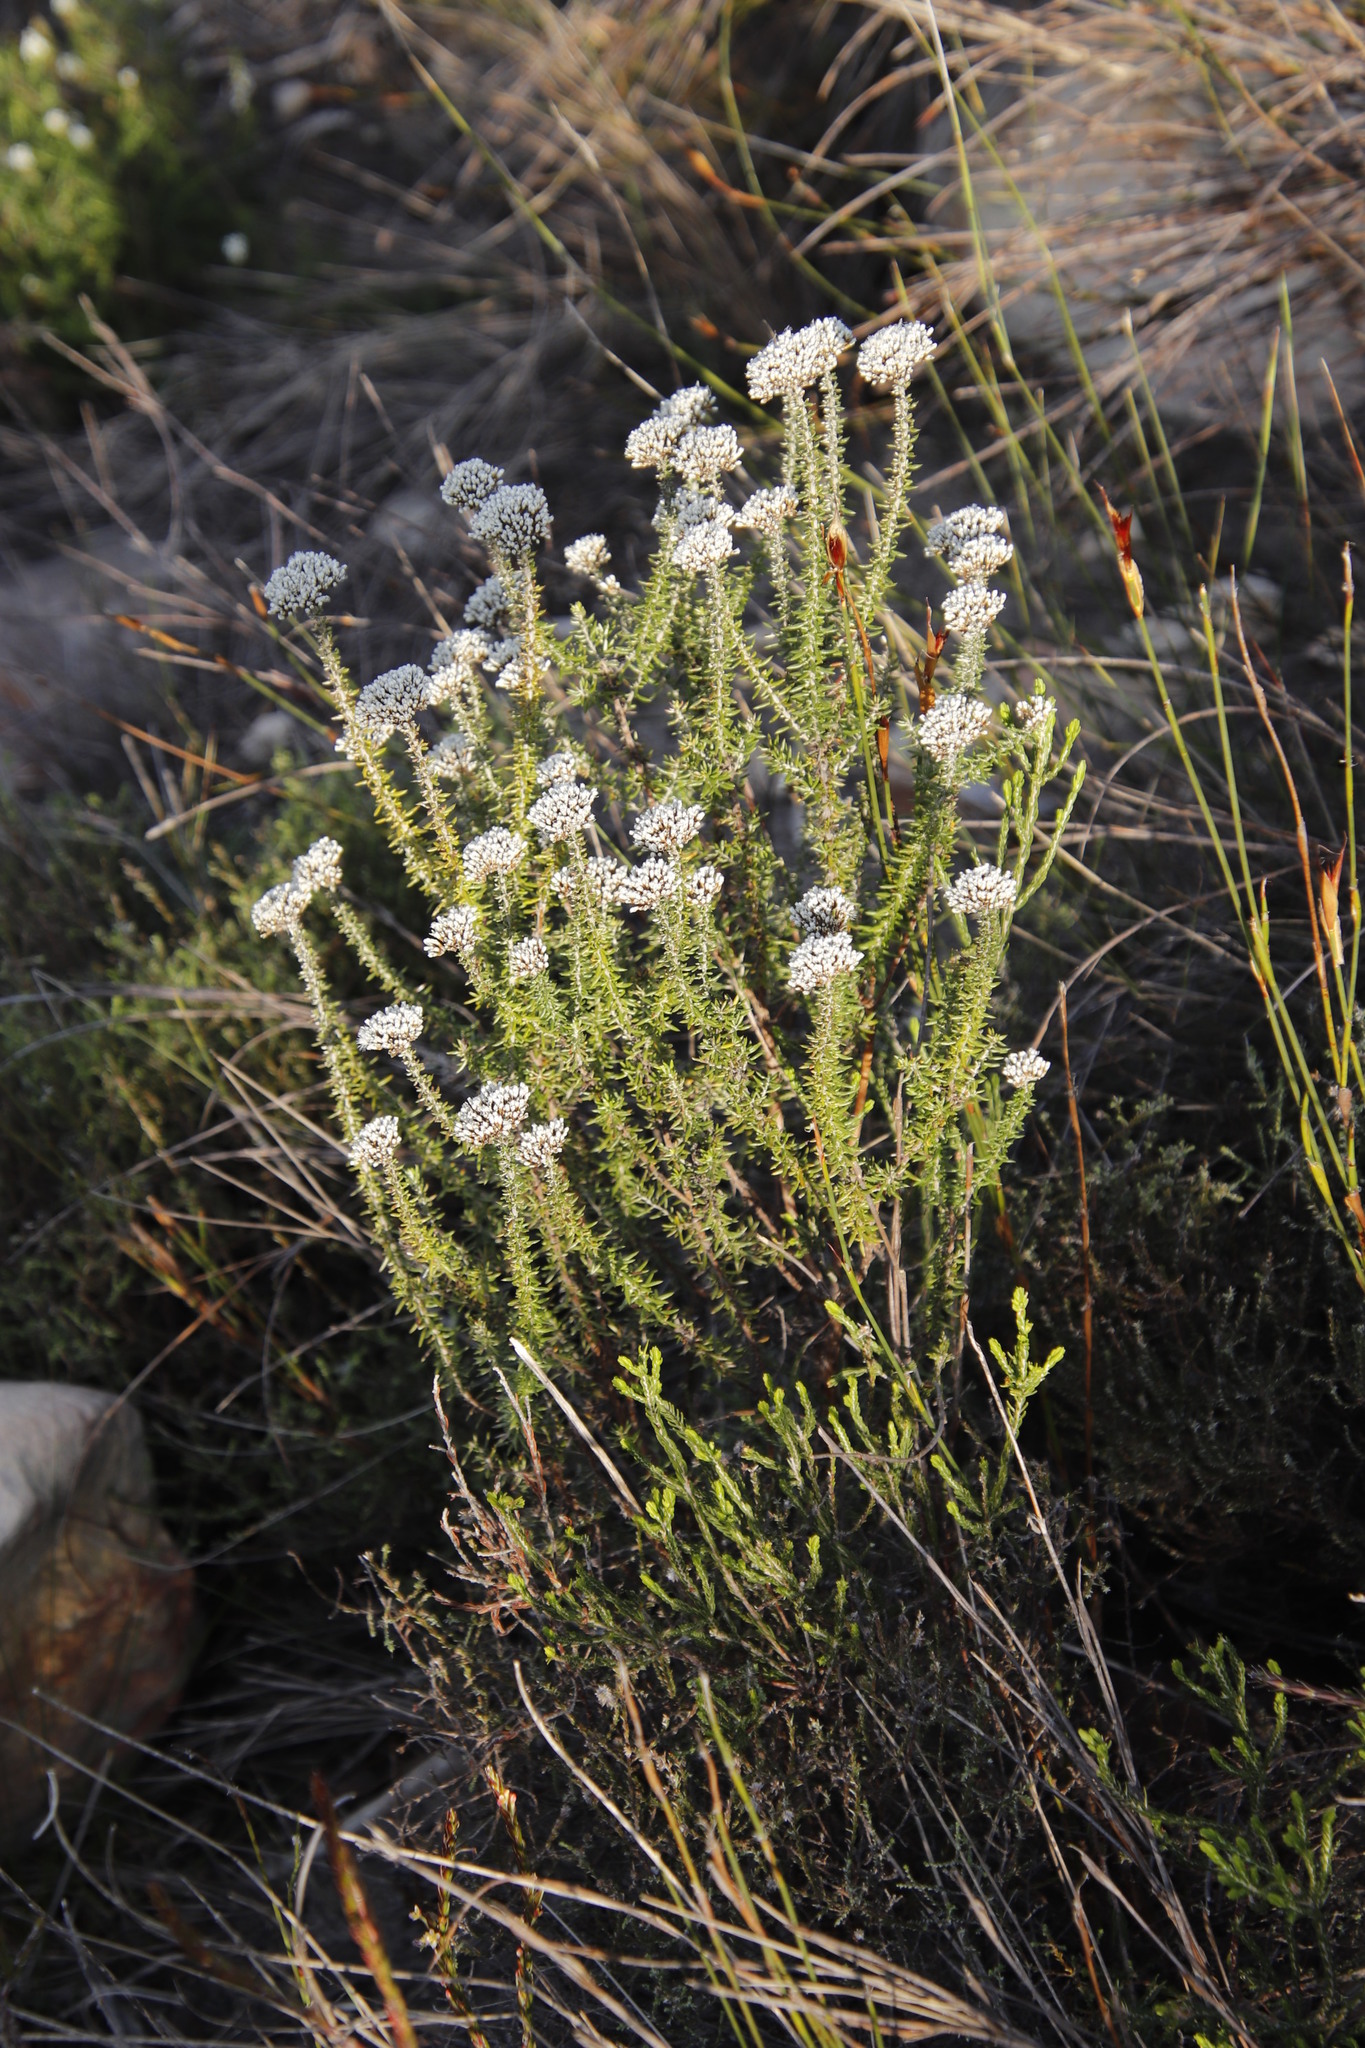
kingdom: Plantae
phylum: Tracheophyta
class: Magnoliopsida
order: Asterales
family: Asteraceae
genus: Metalasia
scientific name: Metalasia densa
